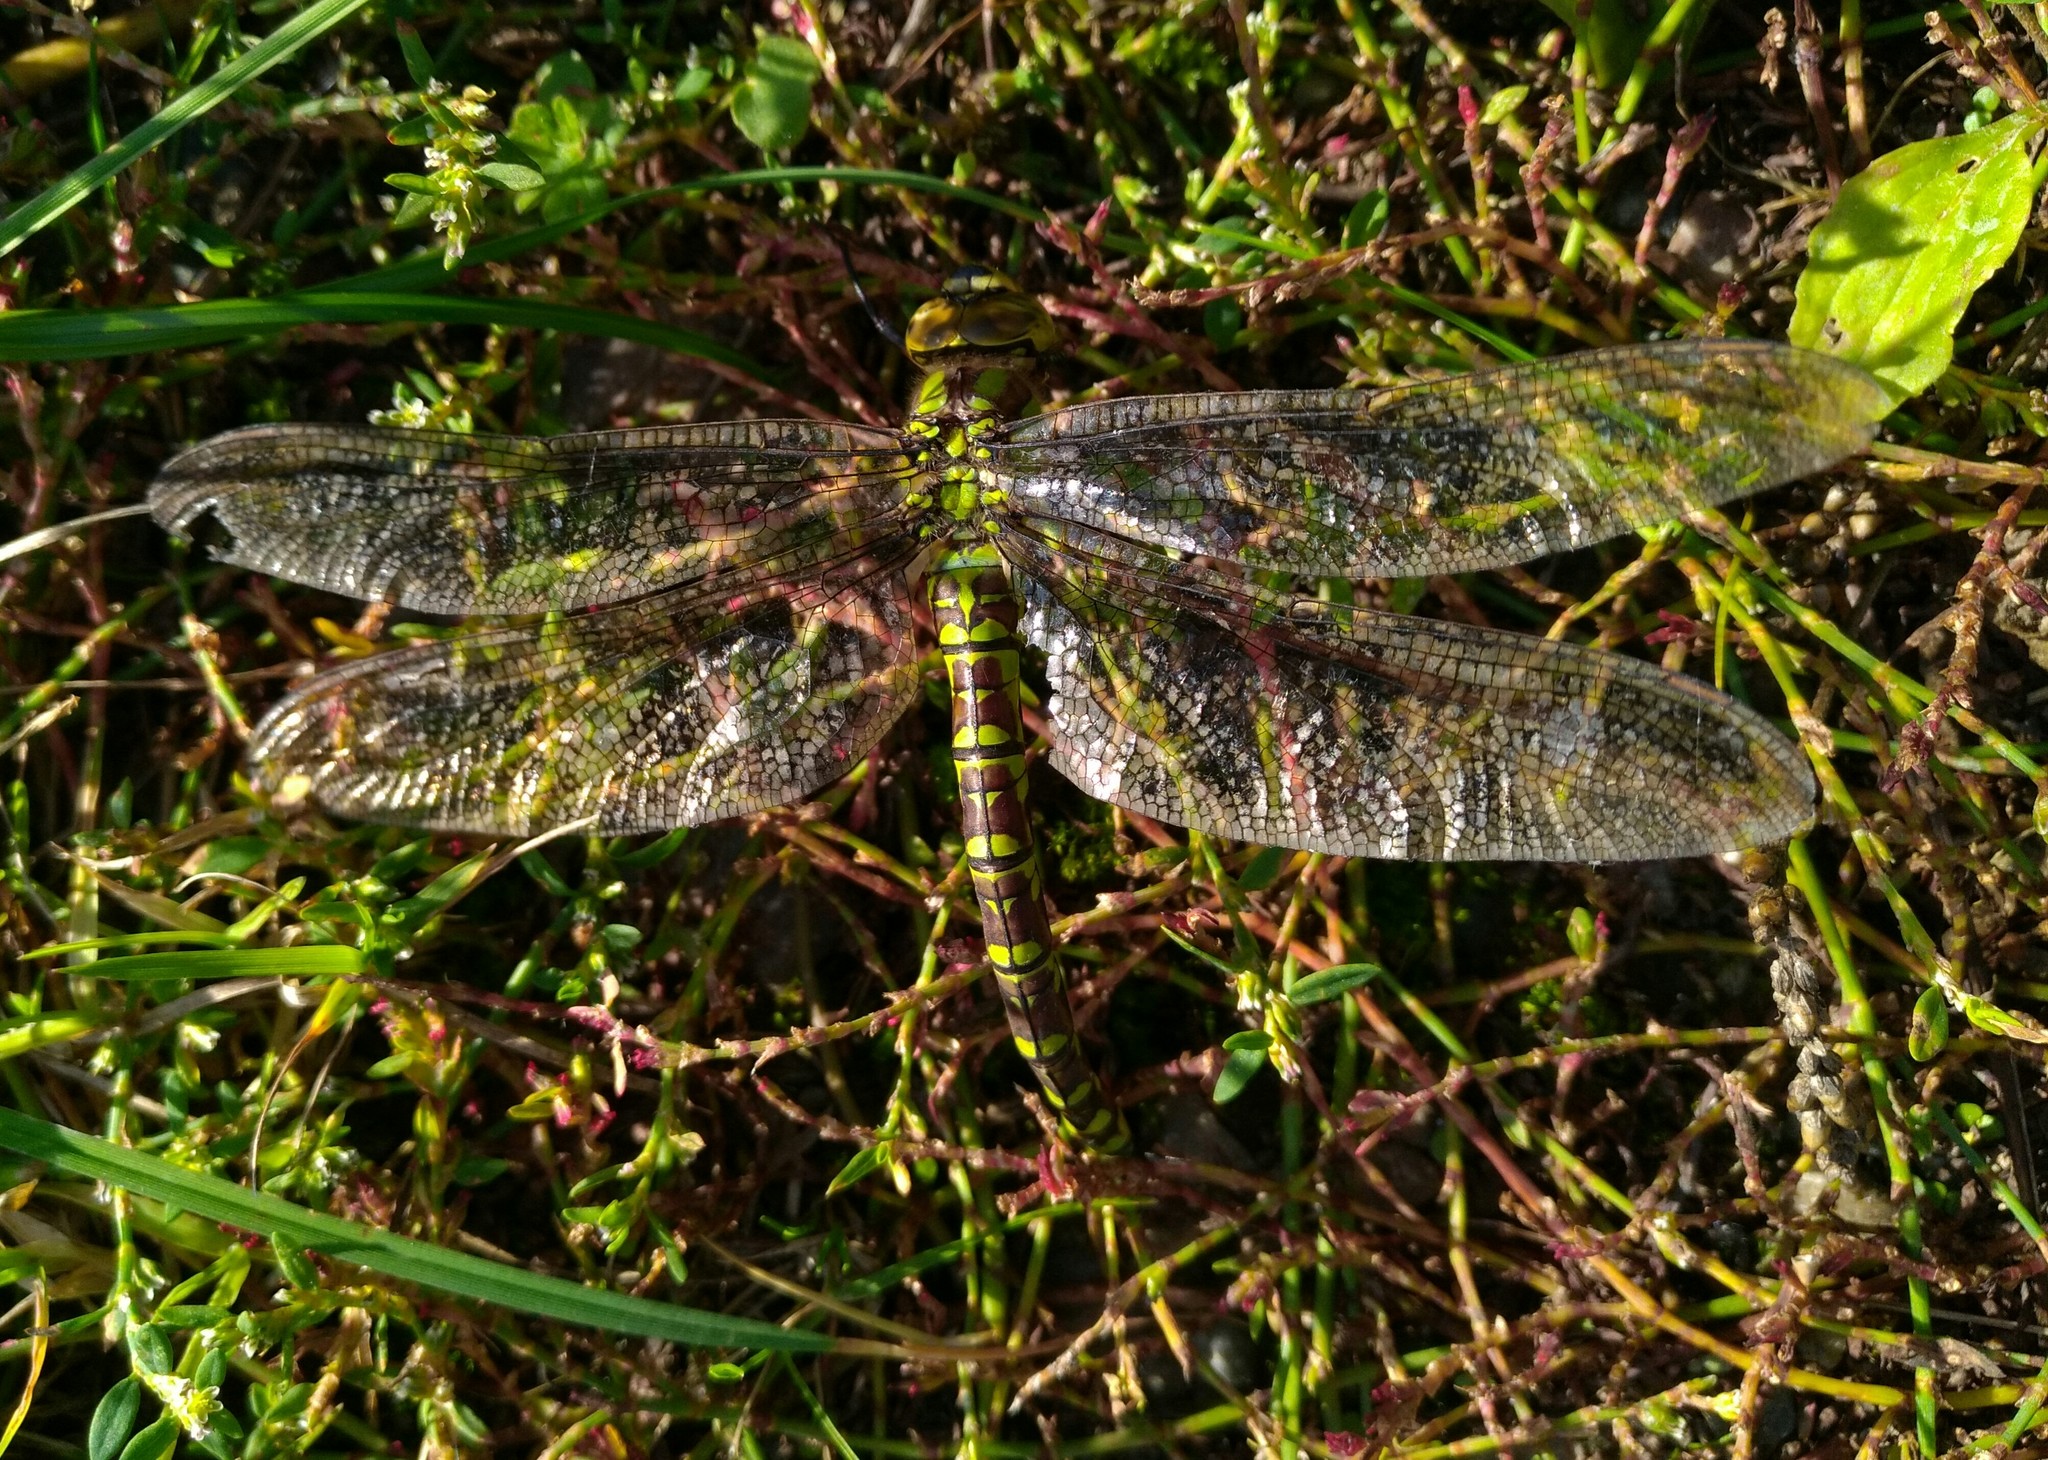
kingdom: Animalia
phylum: Arthropoda
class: Insecta
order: Odonata
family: Aeshnidae
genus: Aeshna
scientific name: Aeshna cyanea
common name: Southern hawker
